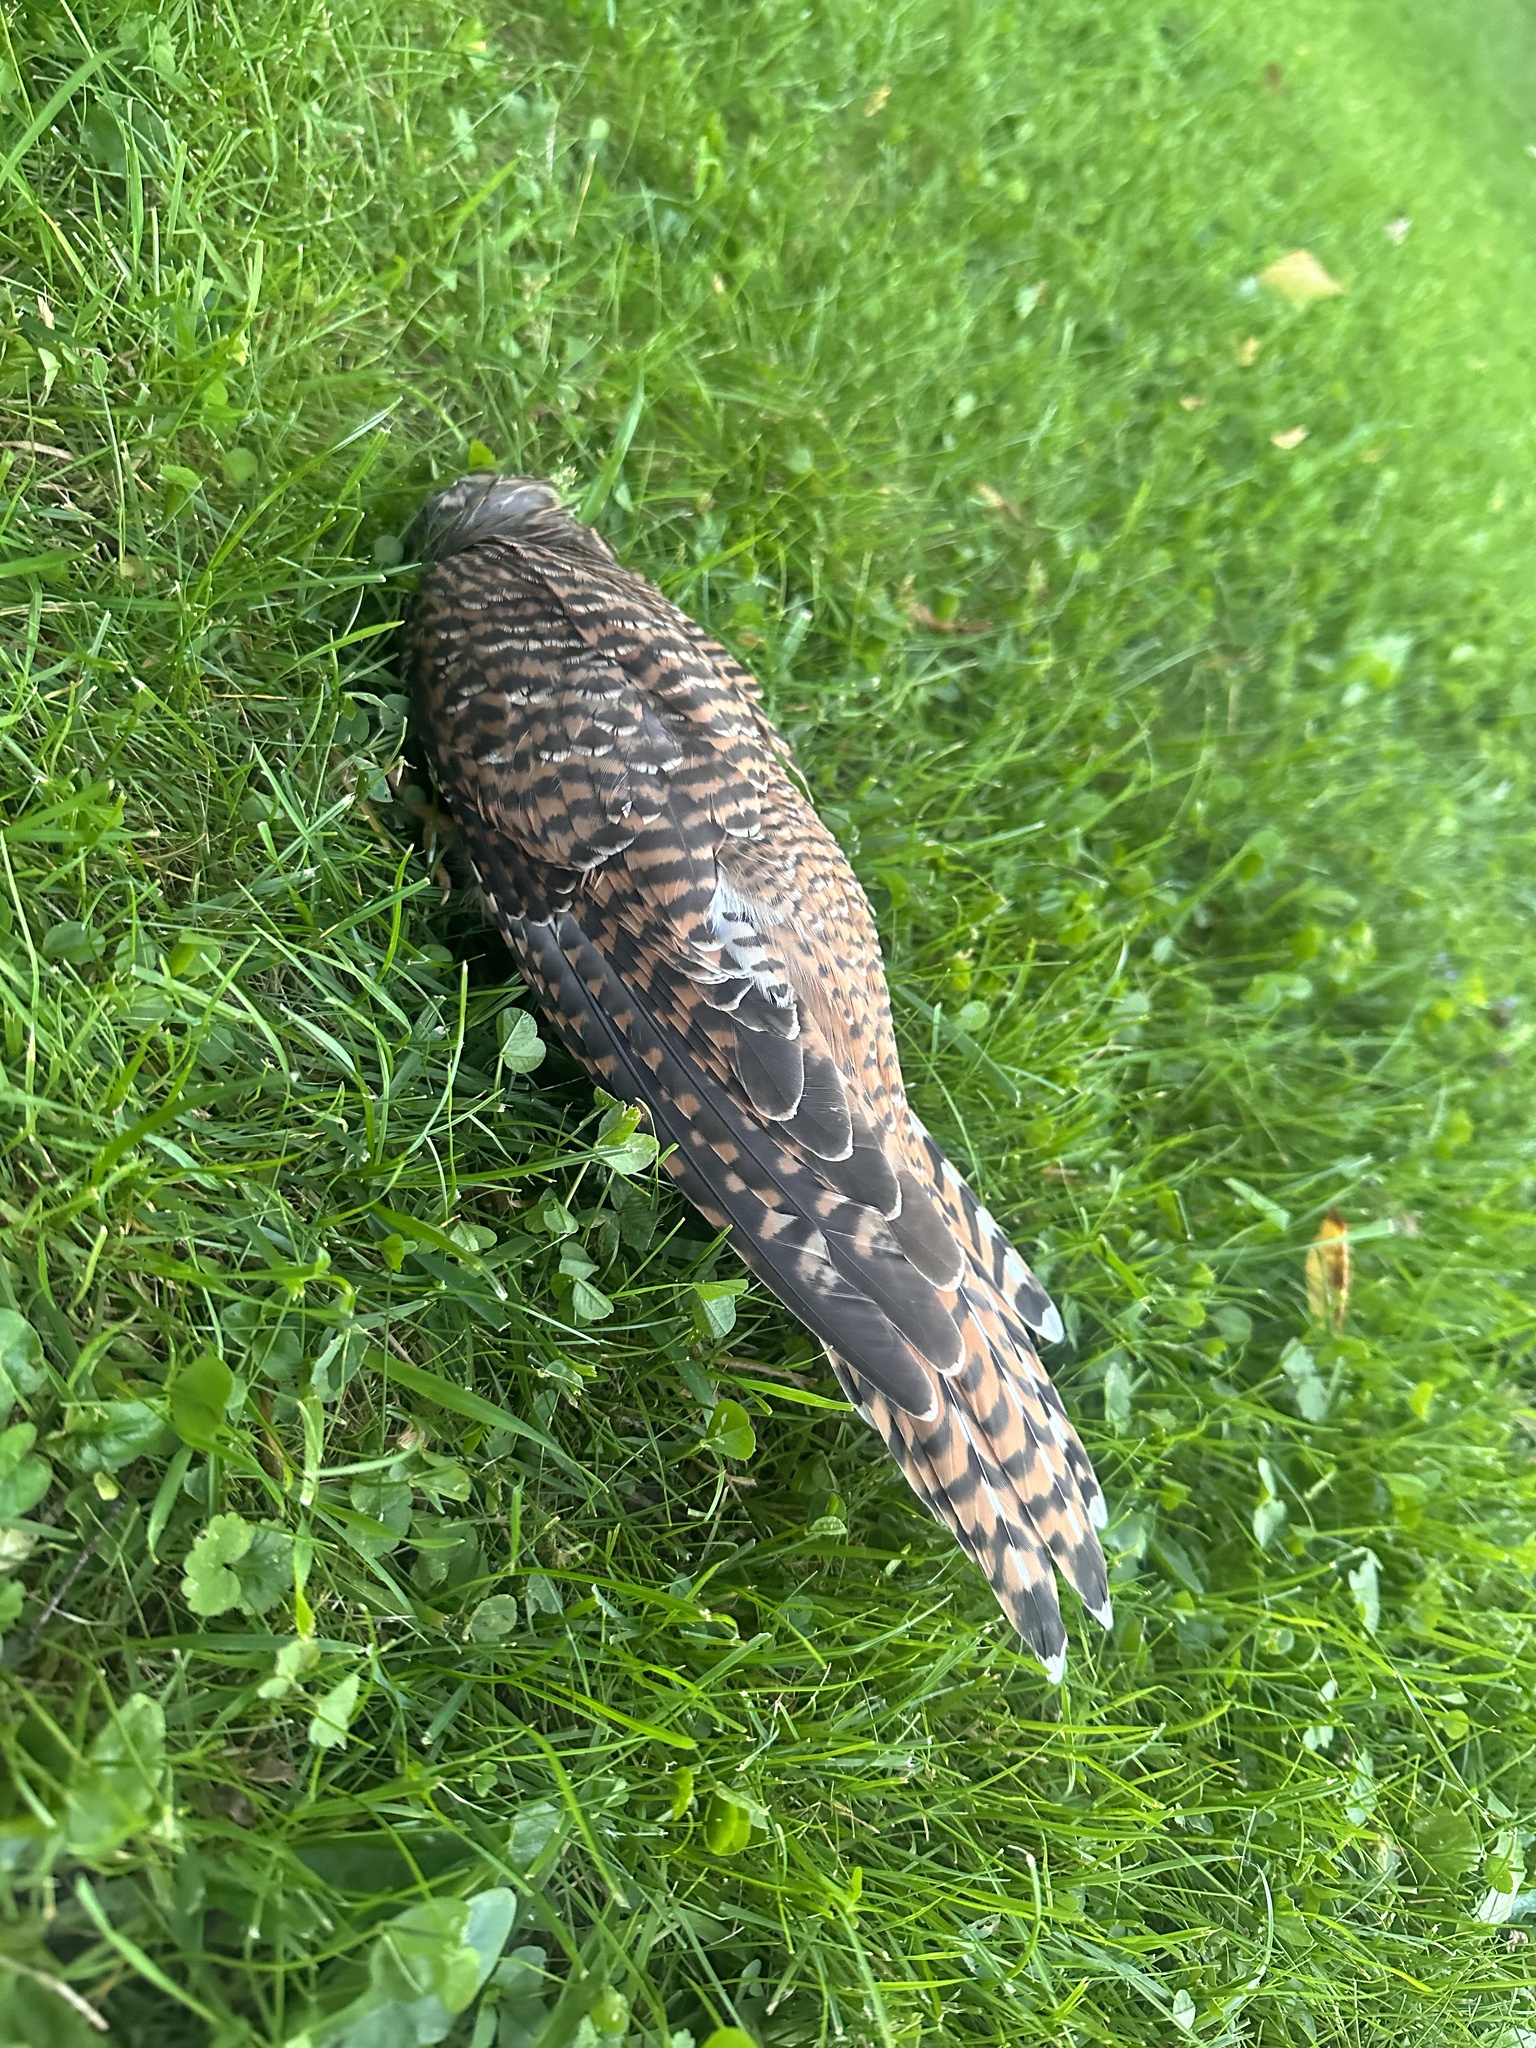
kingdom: Animalia
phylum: Chordata
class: Aves
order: Cuculiformes
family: Cuculidae
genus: Cuculus
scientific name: Cuculus canorus
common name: Common cuckoo
